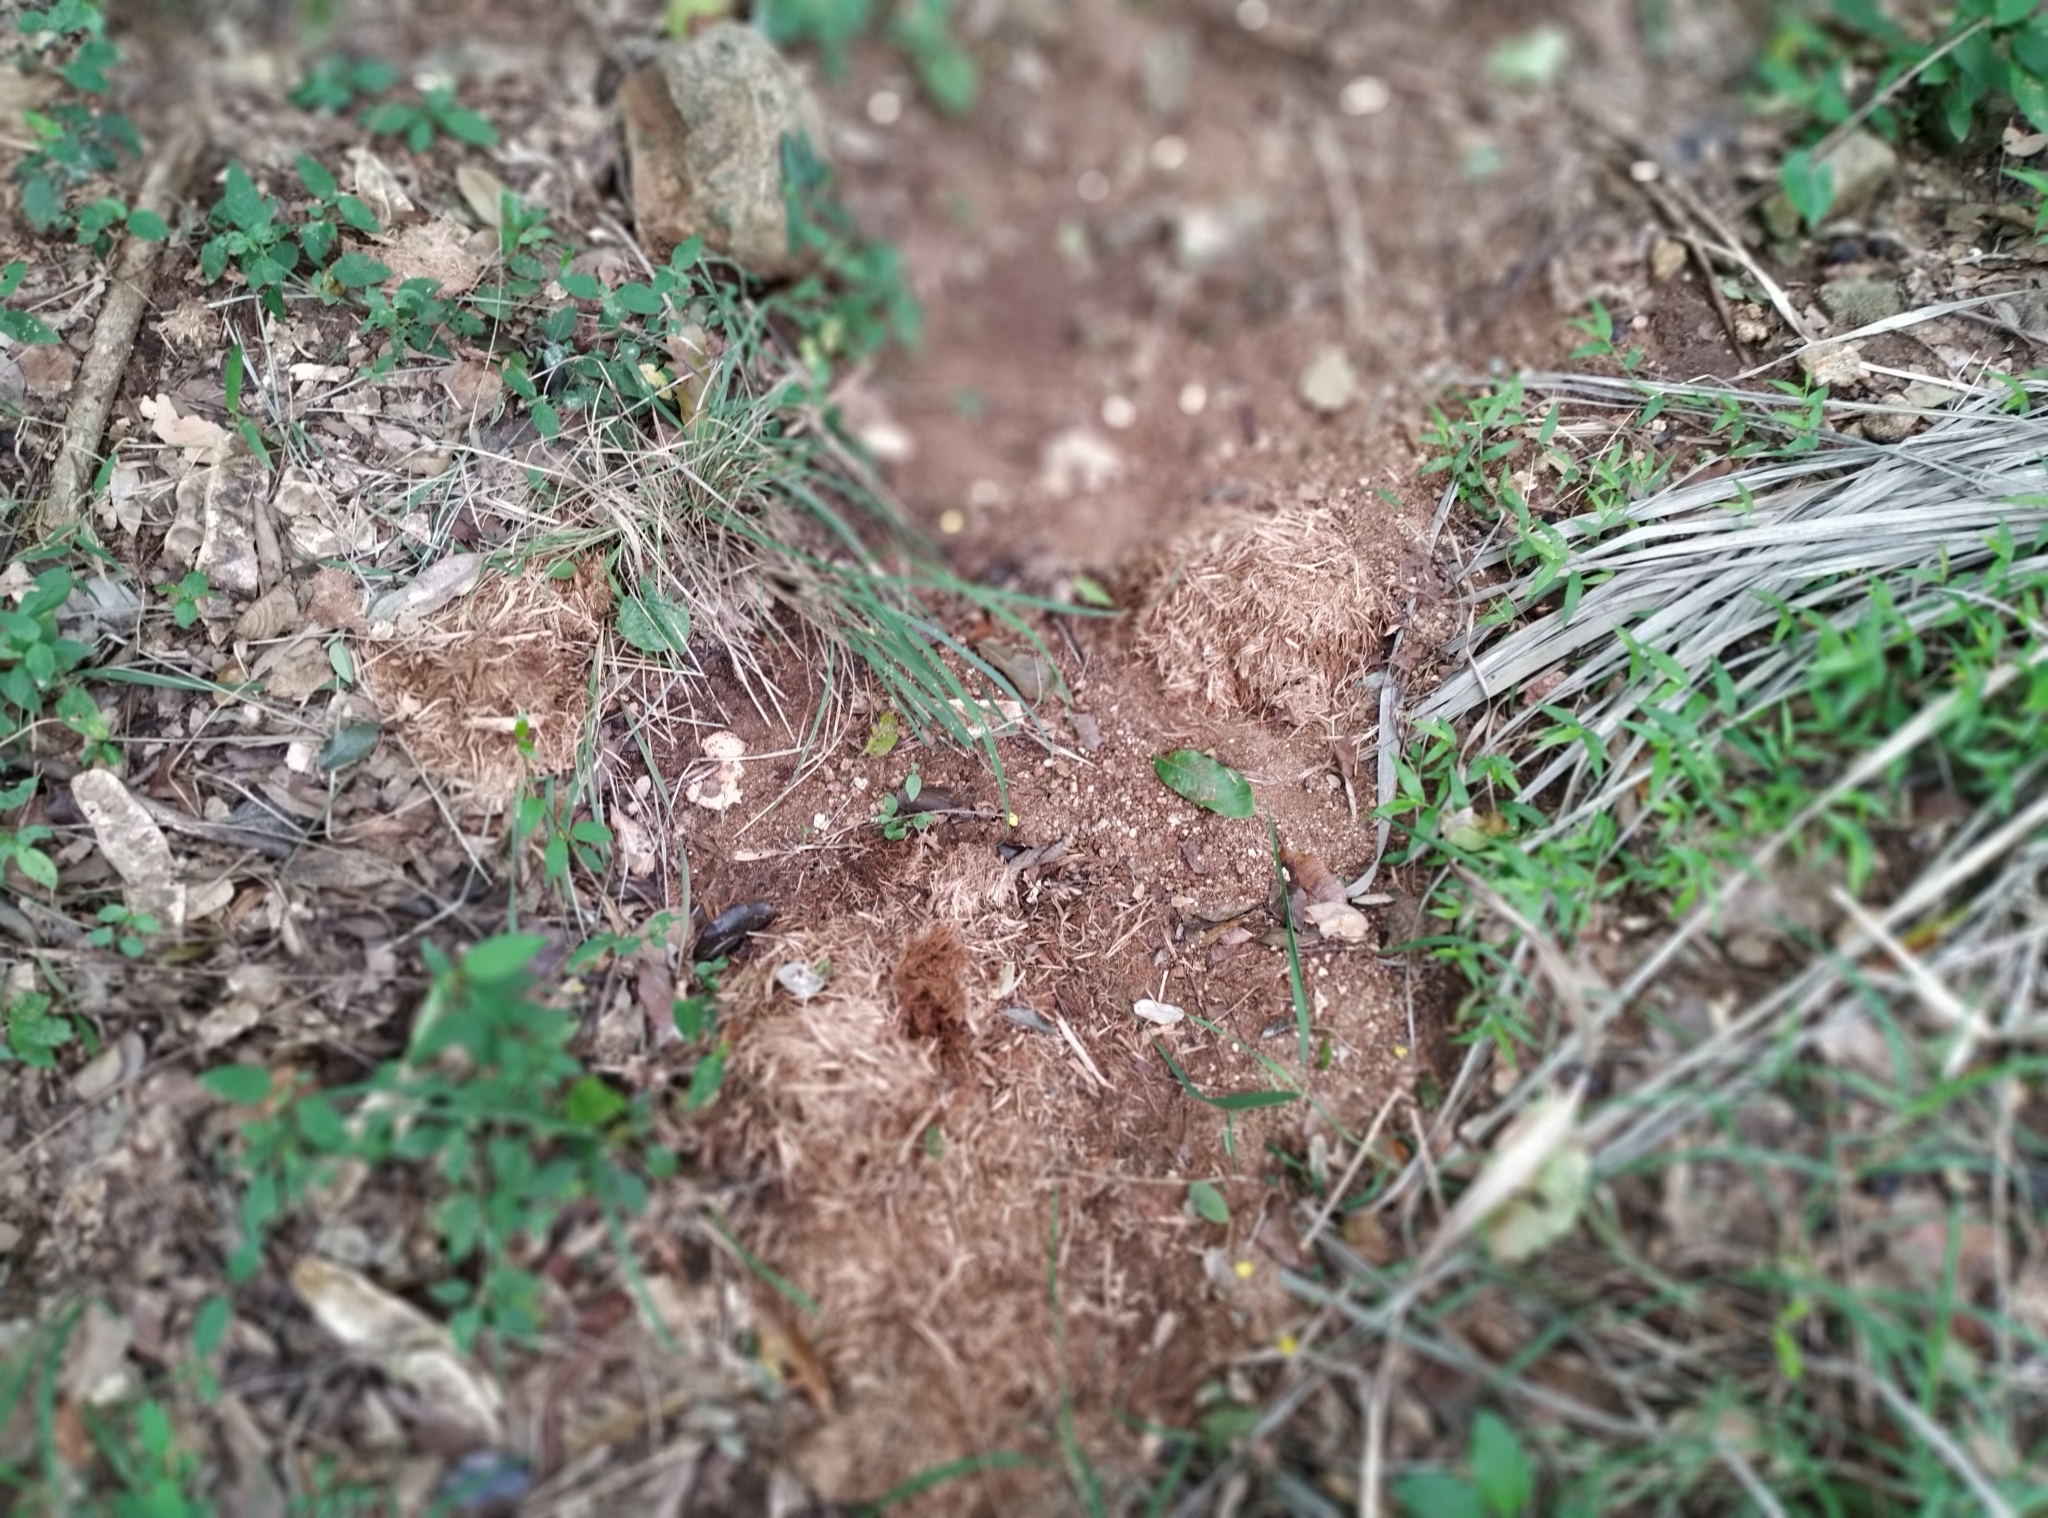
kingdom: Animalia
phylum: Chordata
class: Mammalia
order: Proboscidea
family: Elephantidae
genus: Elephas
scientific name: Elephas maximus
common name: Asian elephant
